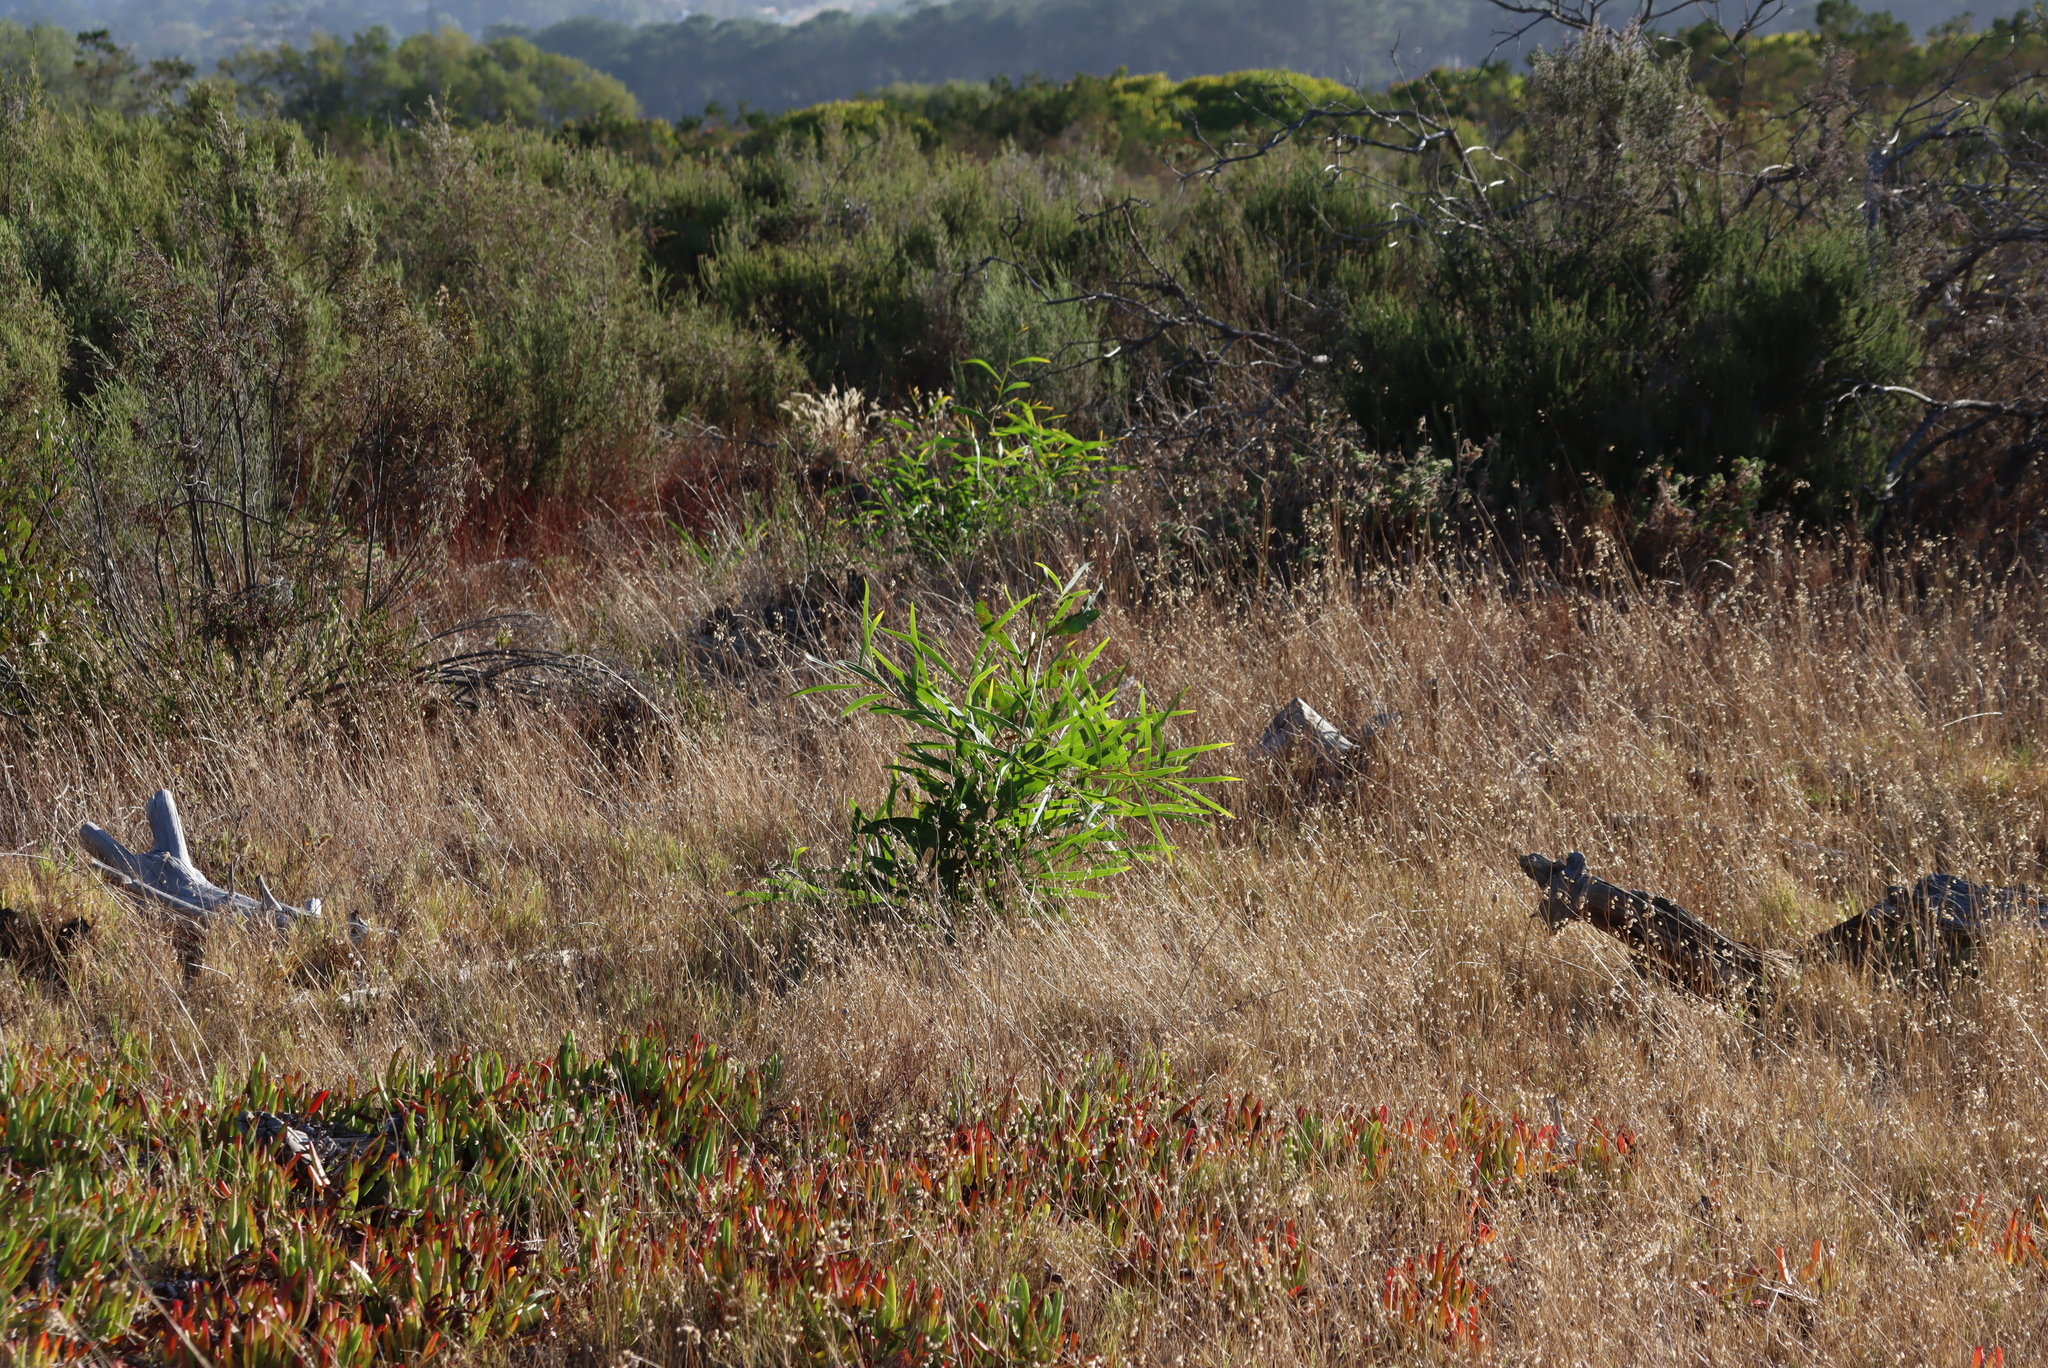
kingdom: Plantae
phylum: Tracheophyta
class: Magnoliopsida
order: Fabales
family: Fabaceae
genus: Acacia
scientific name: Acacia saligna
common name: Orange wattle
